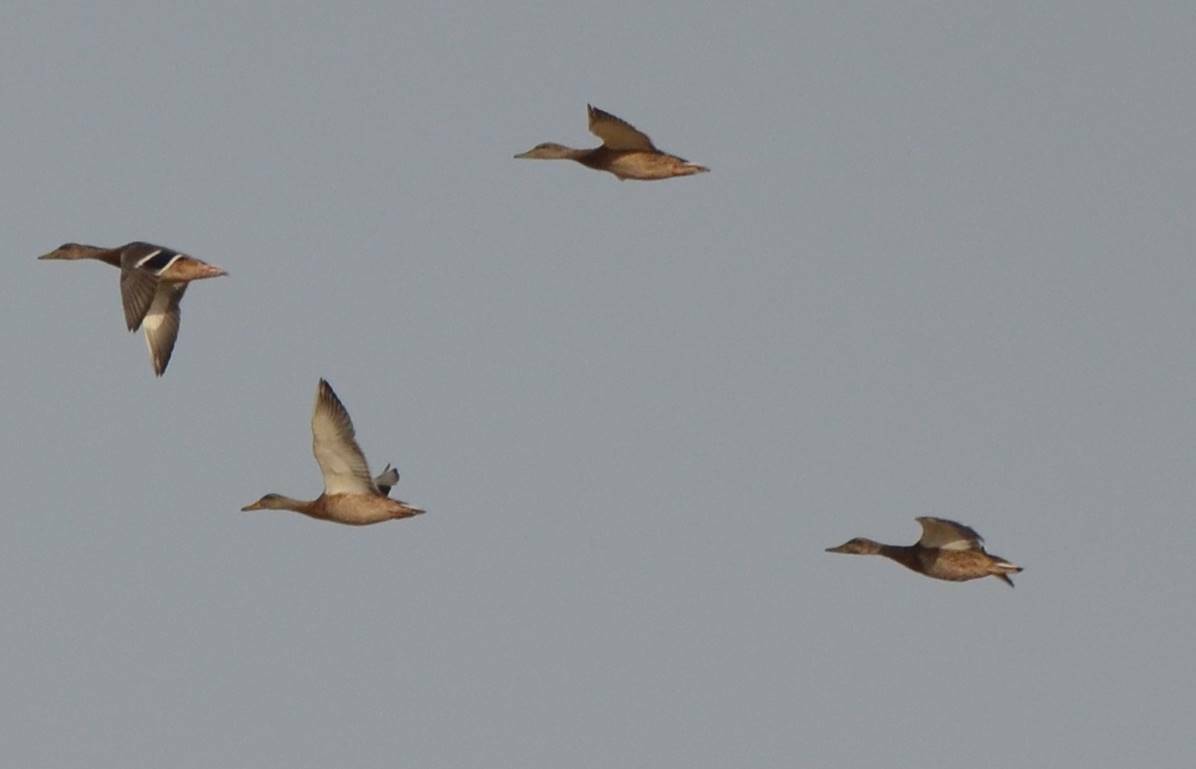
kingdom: Animalia
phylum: Chordata
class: Aves
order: Anseriformes
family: Anatidae
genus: Anas
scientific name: Anas platyrhynchos
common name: Mallard
